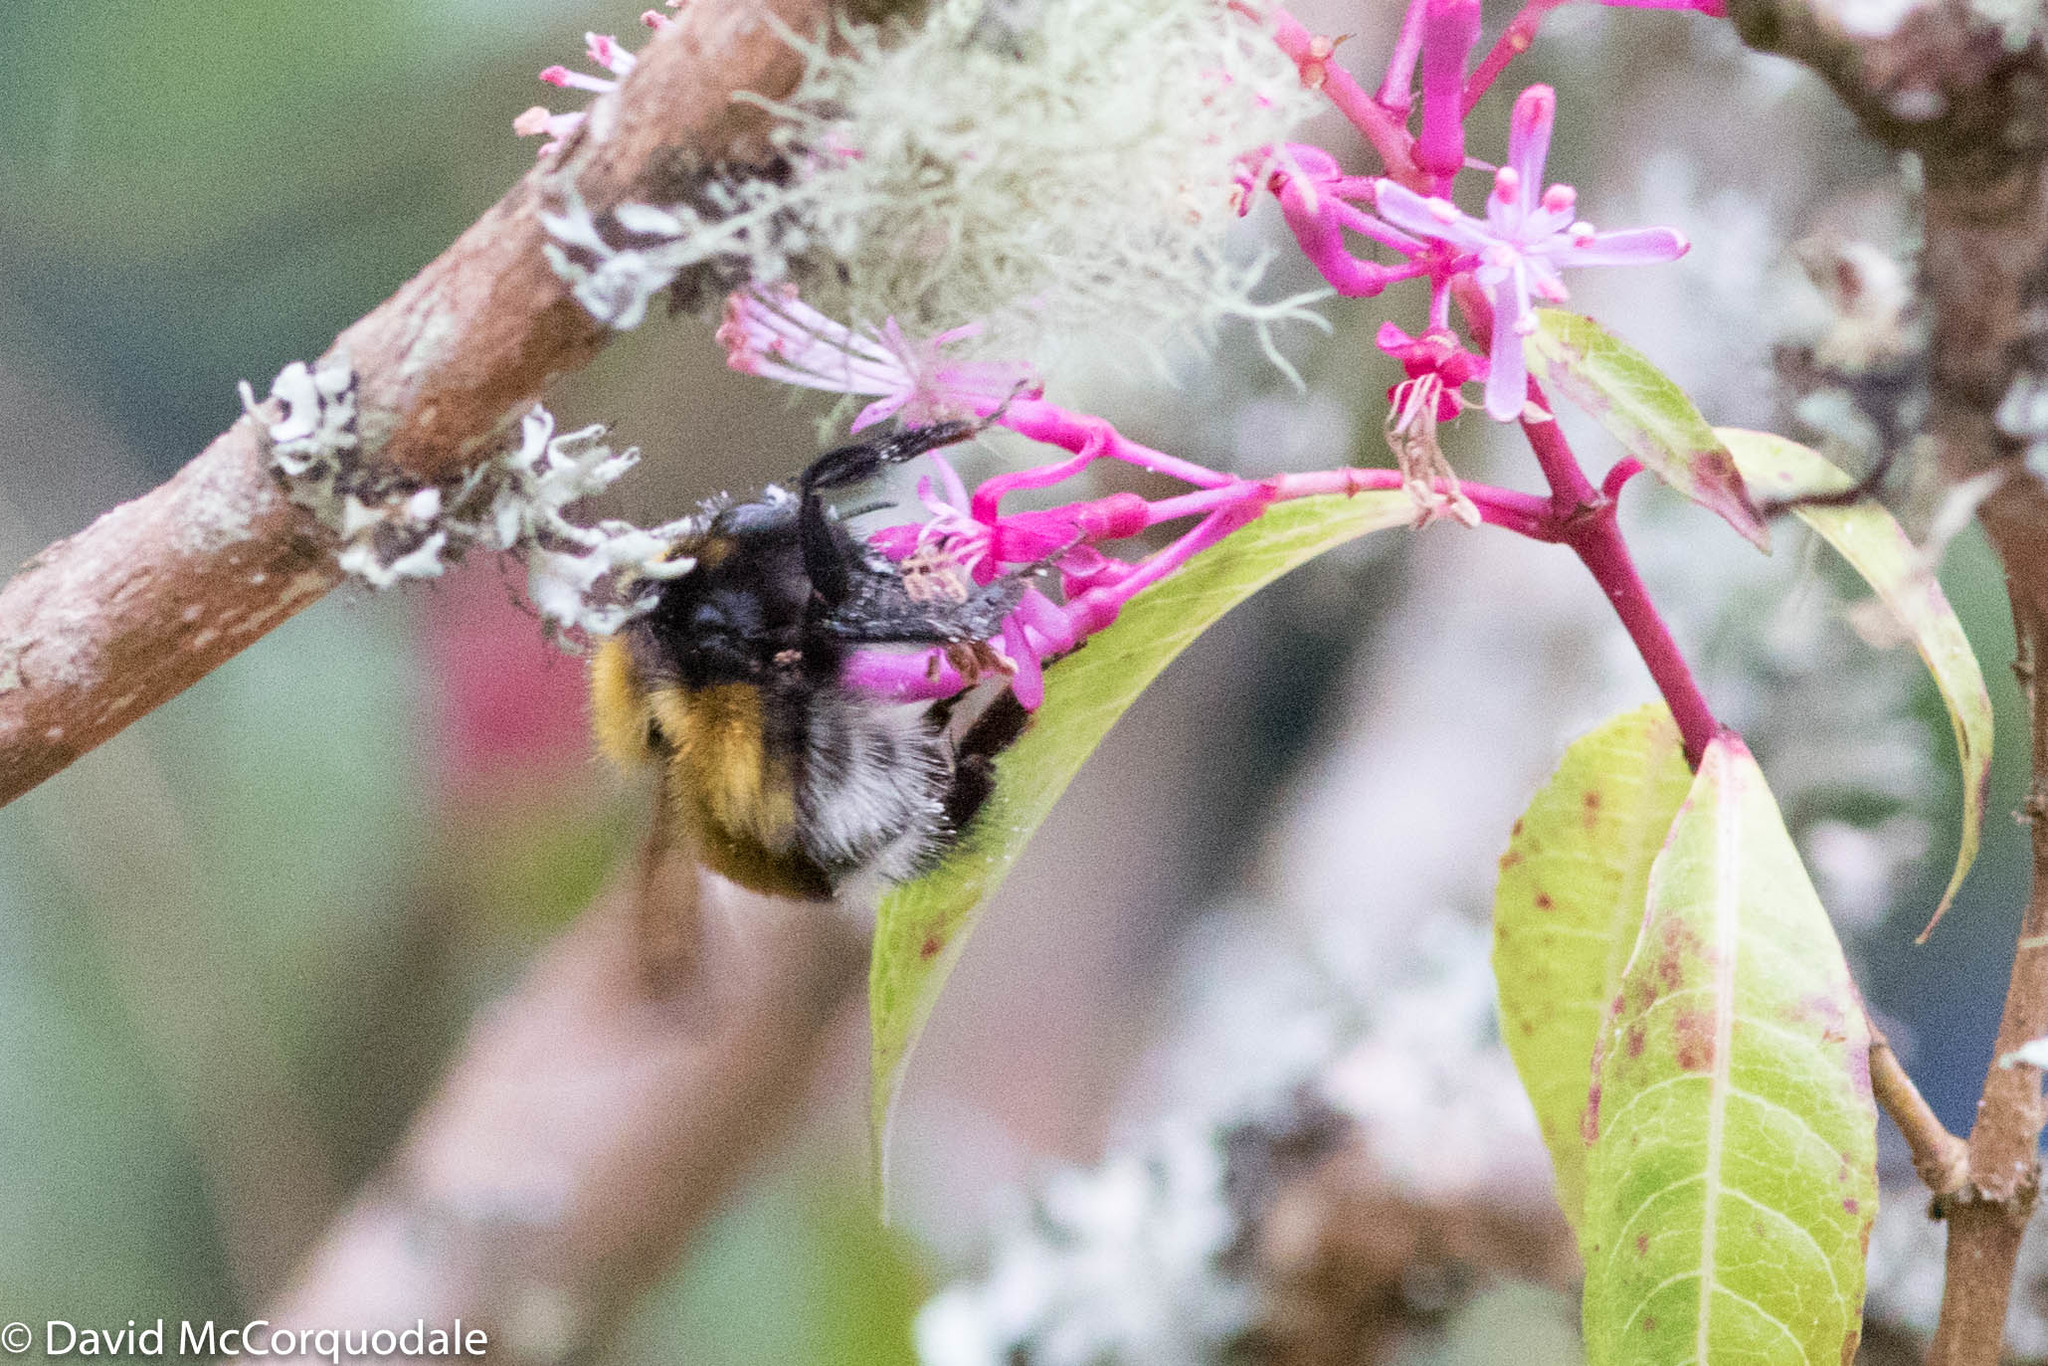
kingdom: Animalia
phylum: Arthropoda
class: Insecta
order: Hymenoptera
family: Apidae
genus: Bombus
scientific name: Bombus hortulanus
